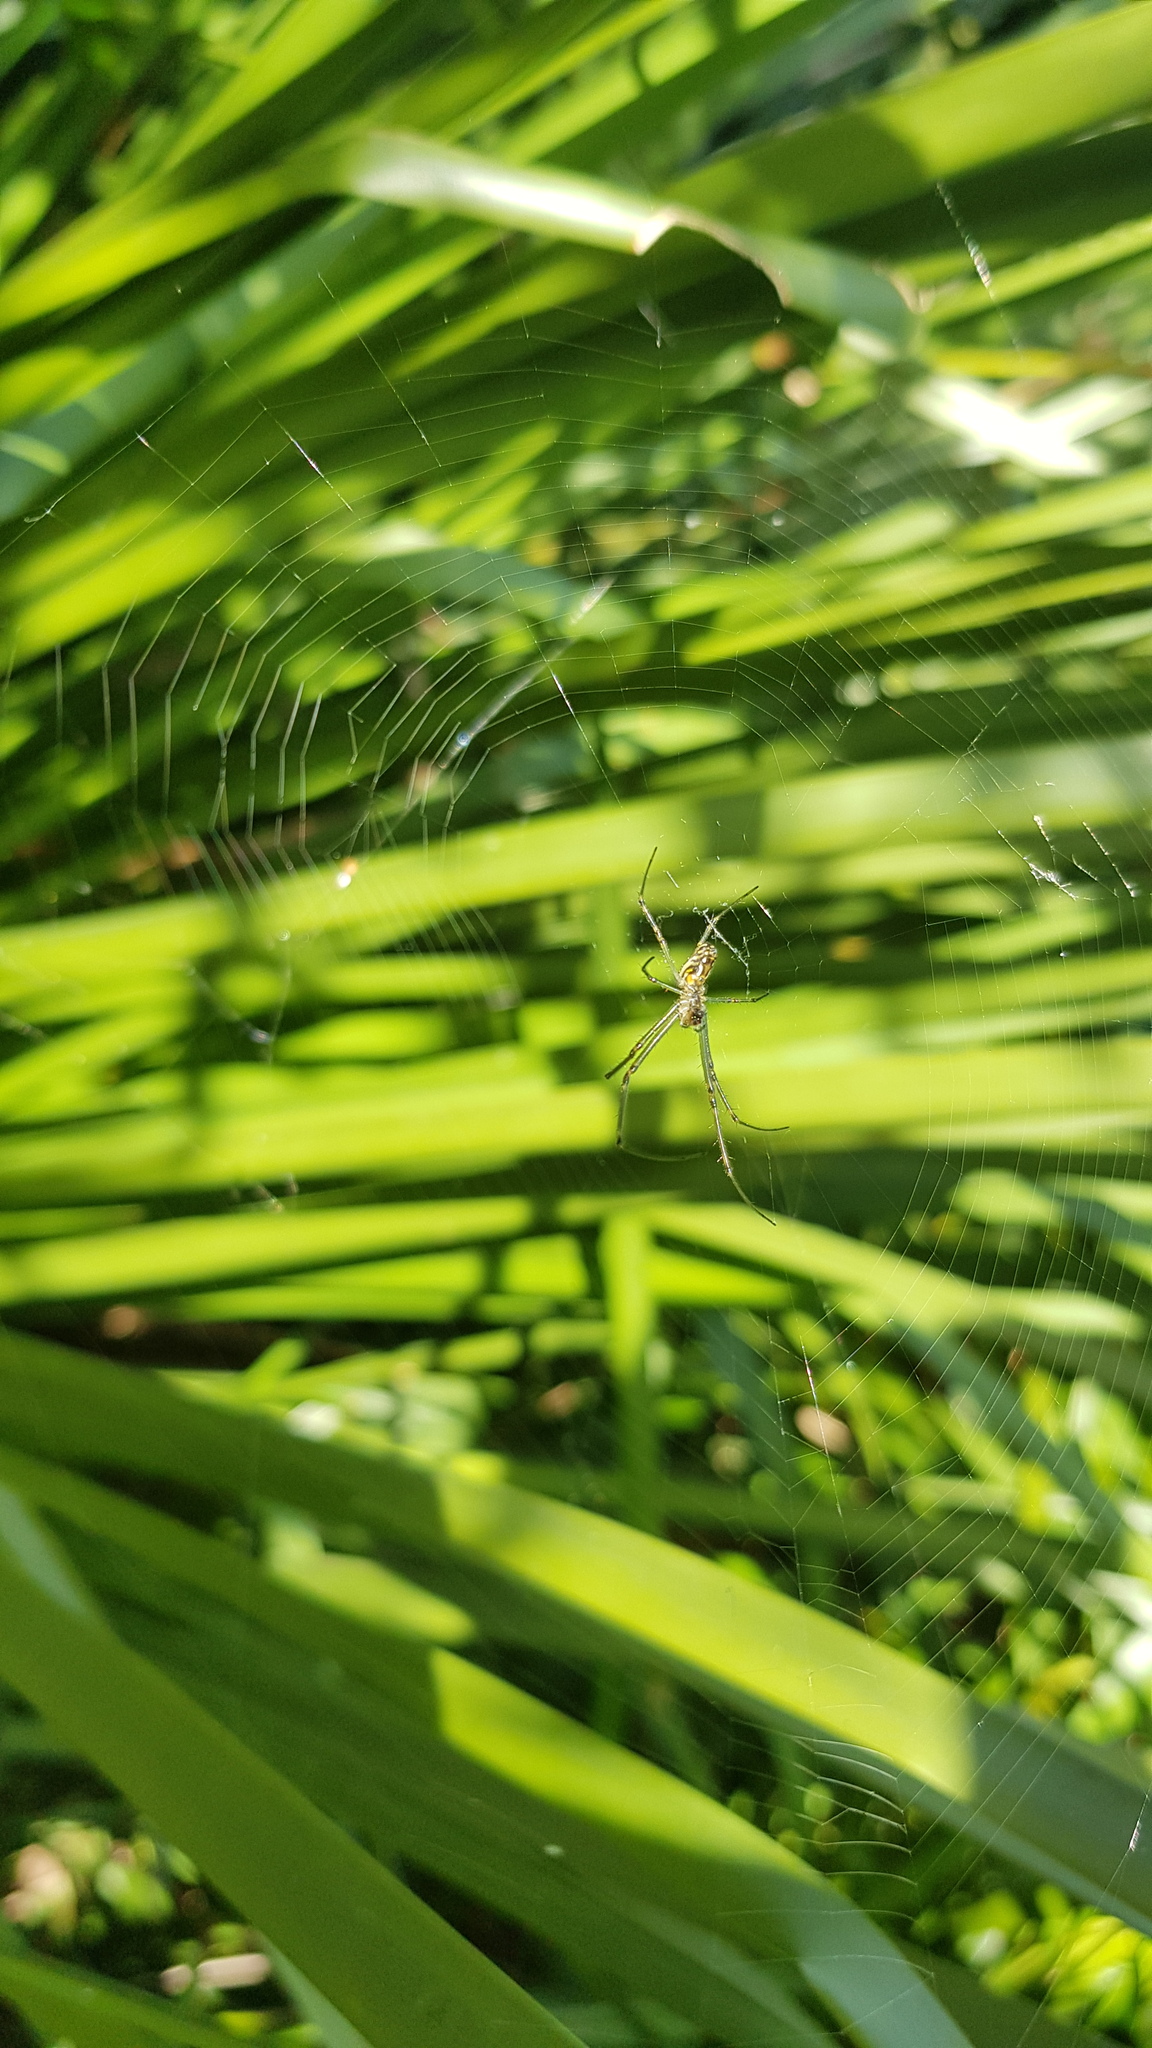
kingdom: Animalia
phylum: Arthropoda
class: Arachnida
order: Araneae
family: Tetragnathidae
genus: Leucauge
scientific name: Leucauge dromedaria
